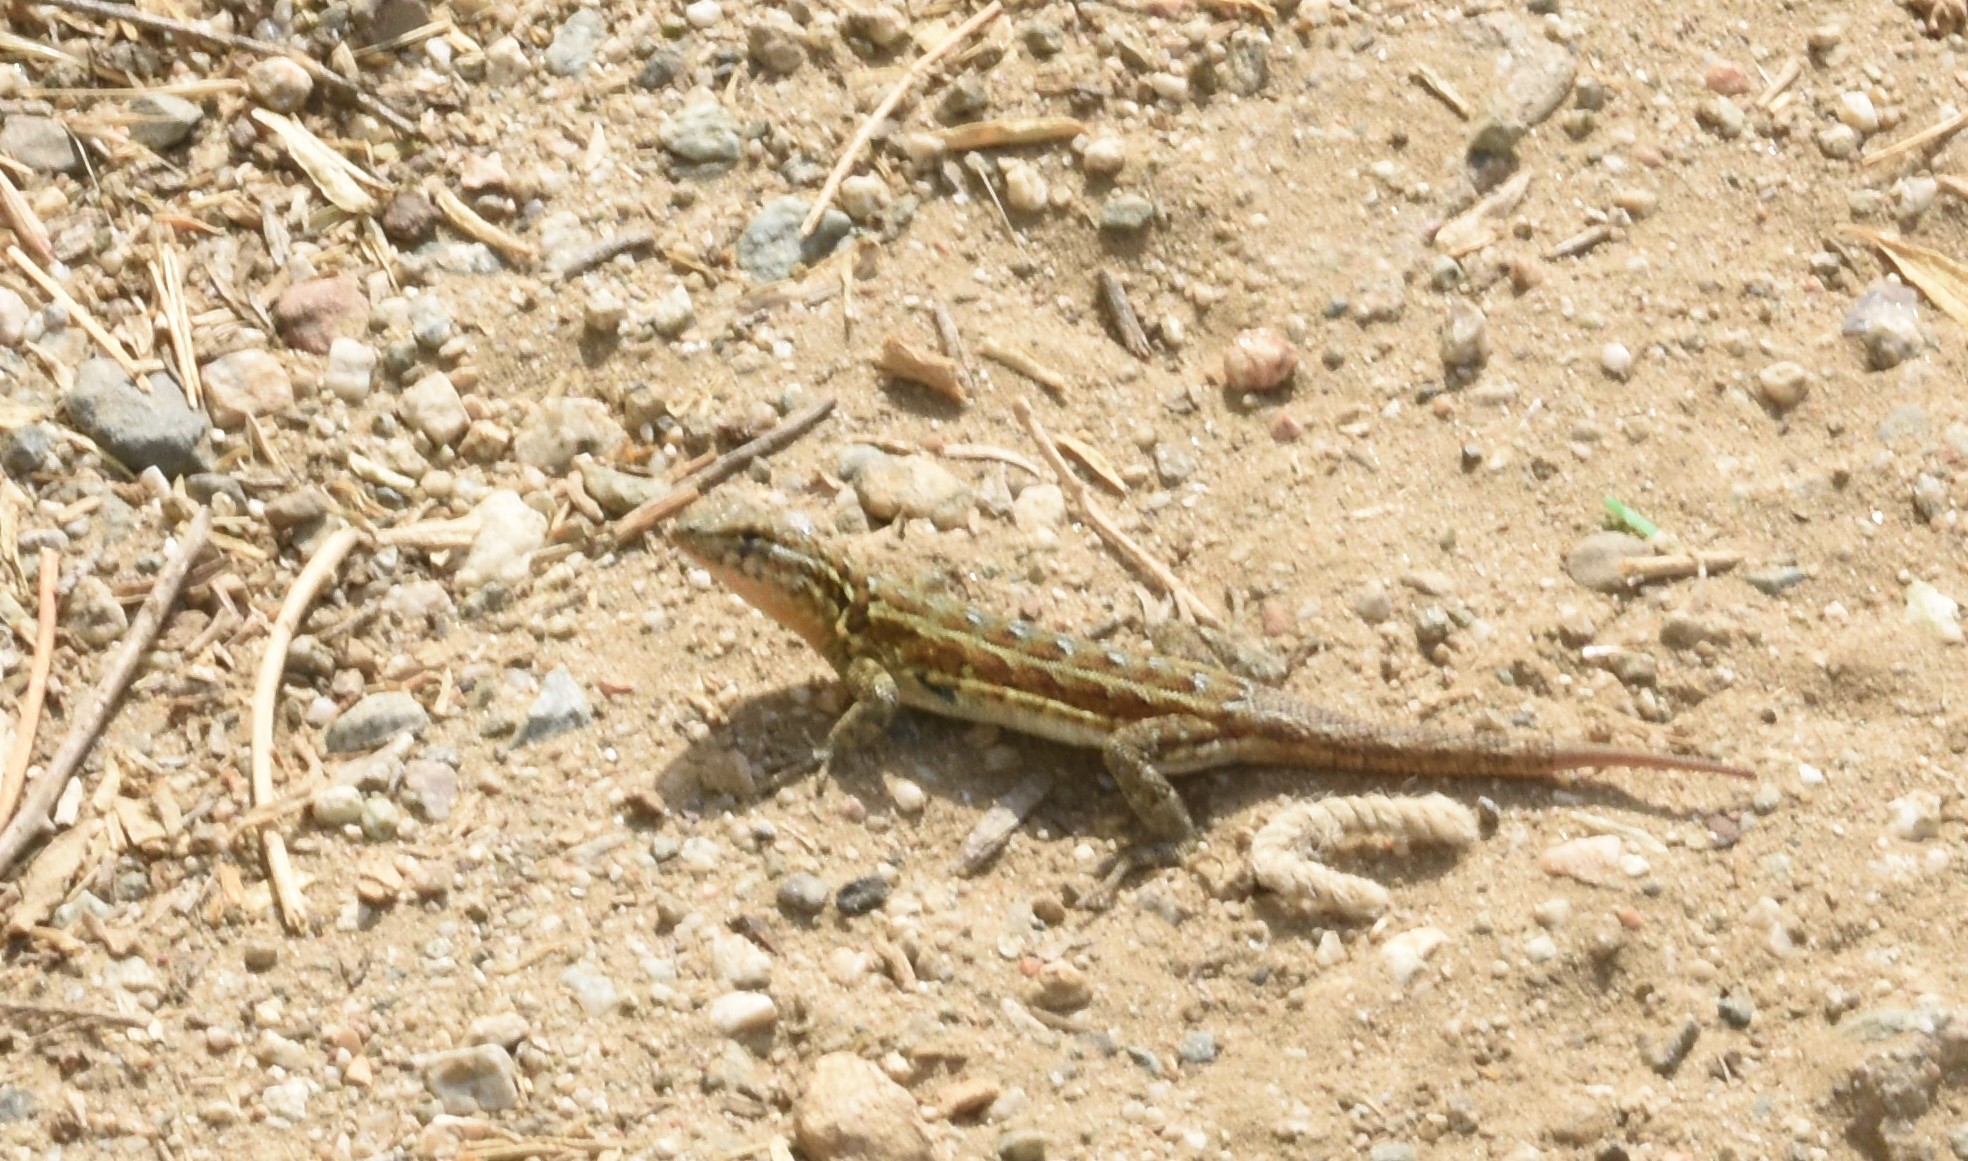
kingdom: Animalia
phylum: Chordata
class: Squamata
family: Phrynosomatidae
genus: Uta
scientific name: Uta stansburiana
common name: Side-blotched lizard
